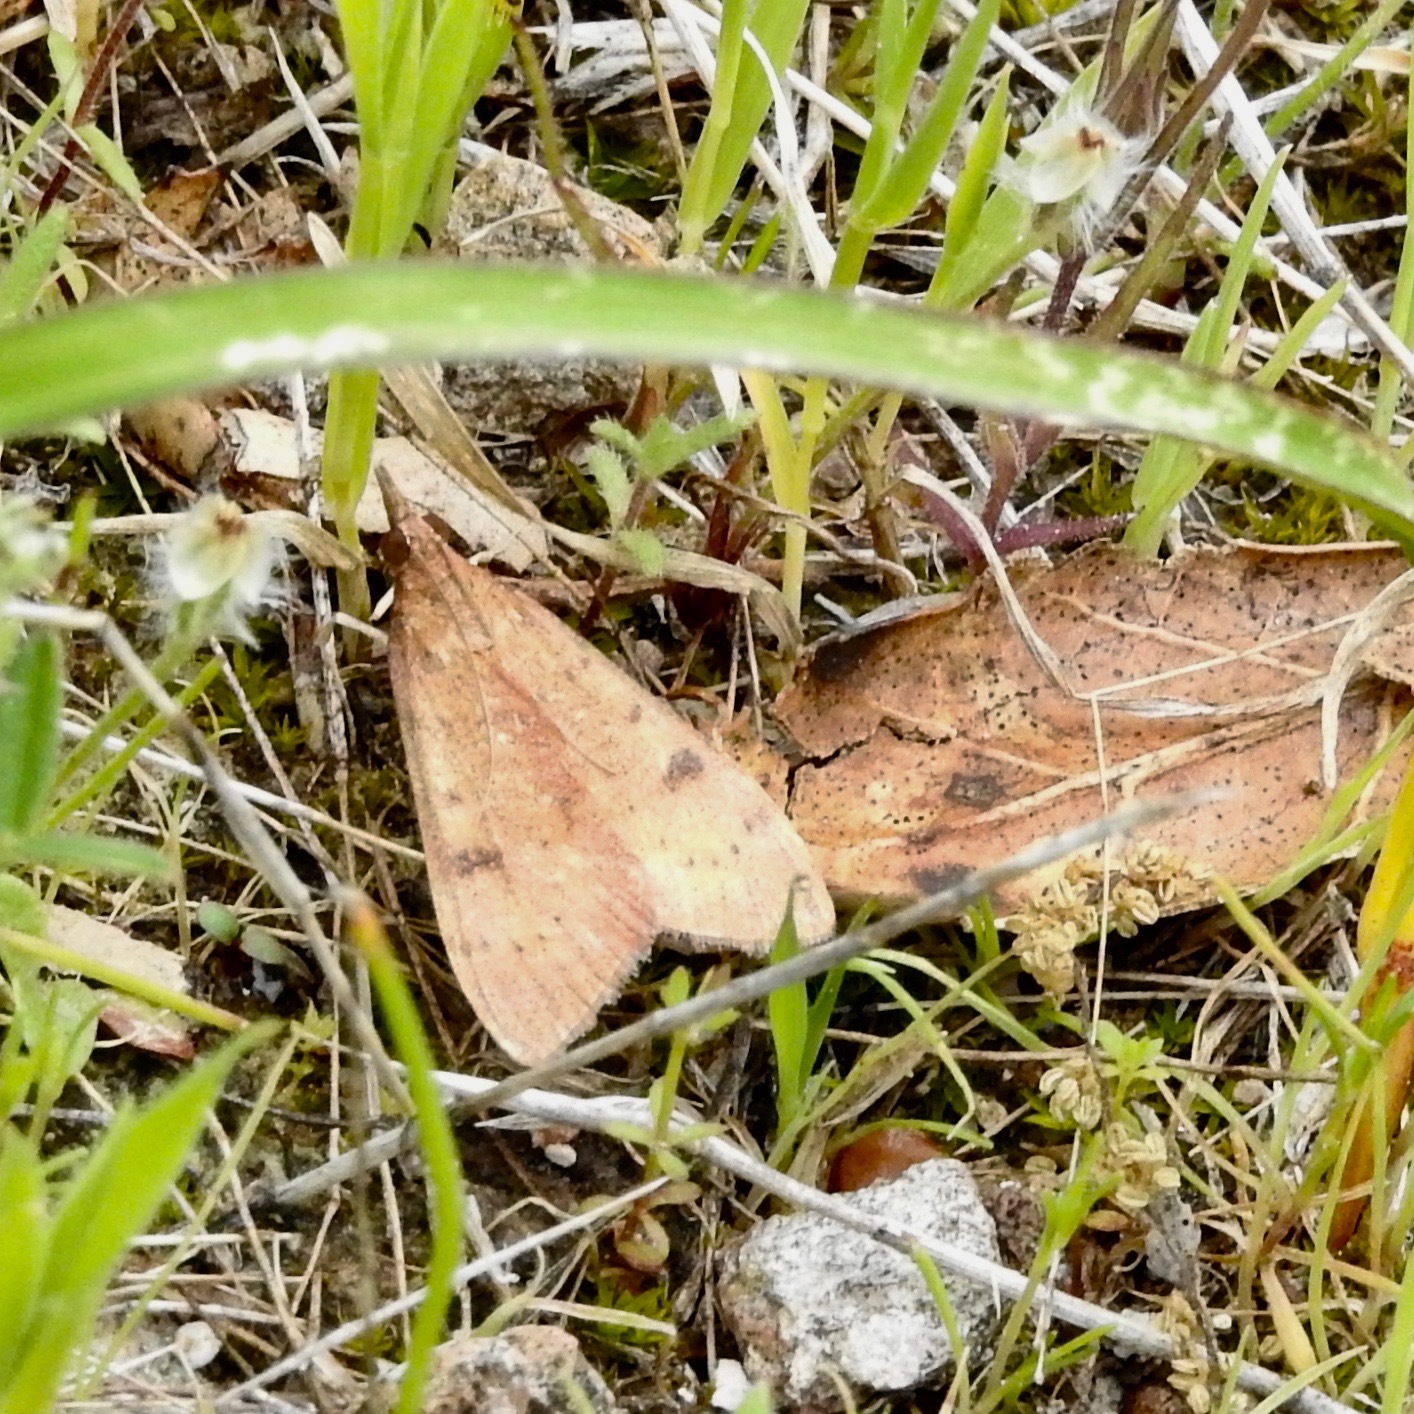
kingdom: Animalia
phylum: Arthropoda
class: Insecta
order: Lepidoptera
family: Crambidae
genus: Uresiphita
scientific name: Uresiphita reversalis
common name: Genista broom moth
